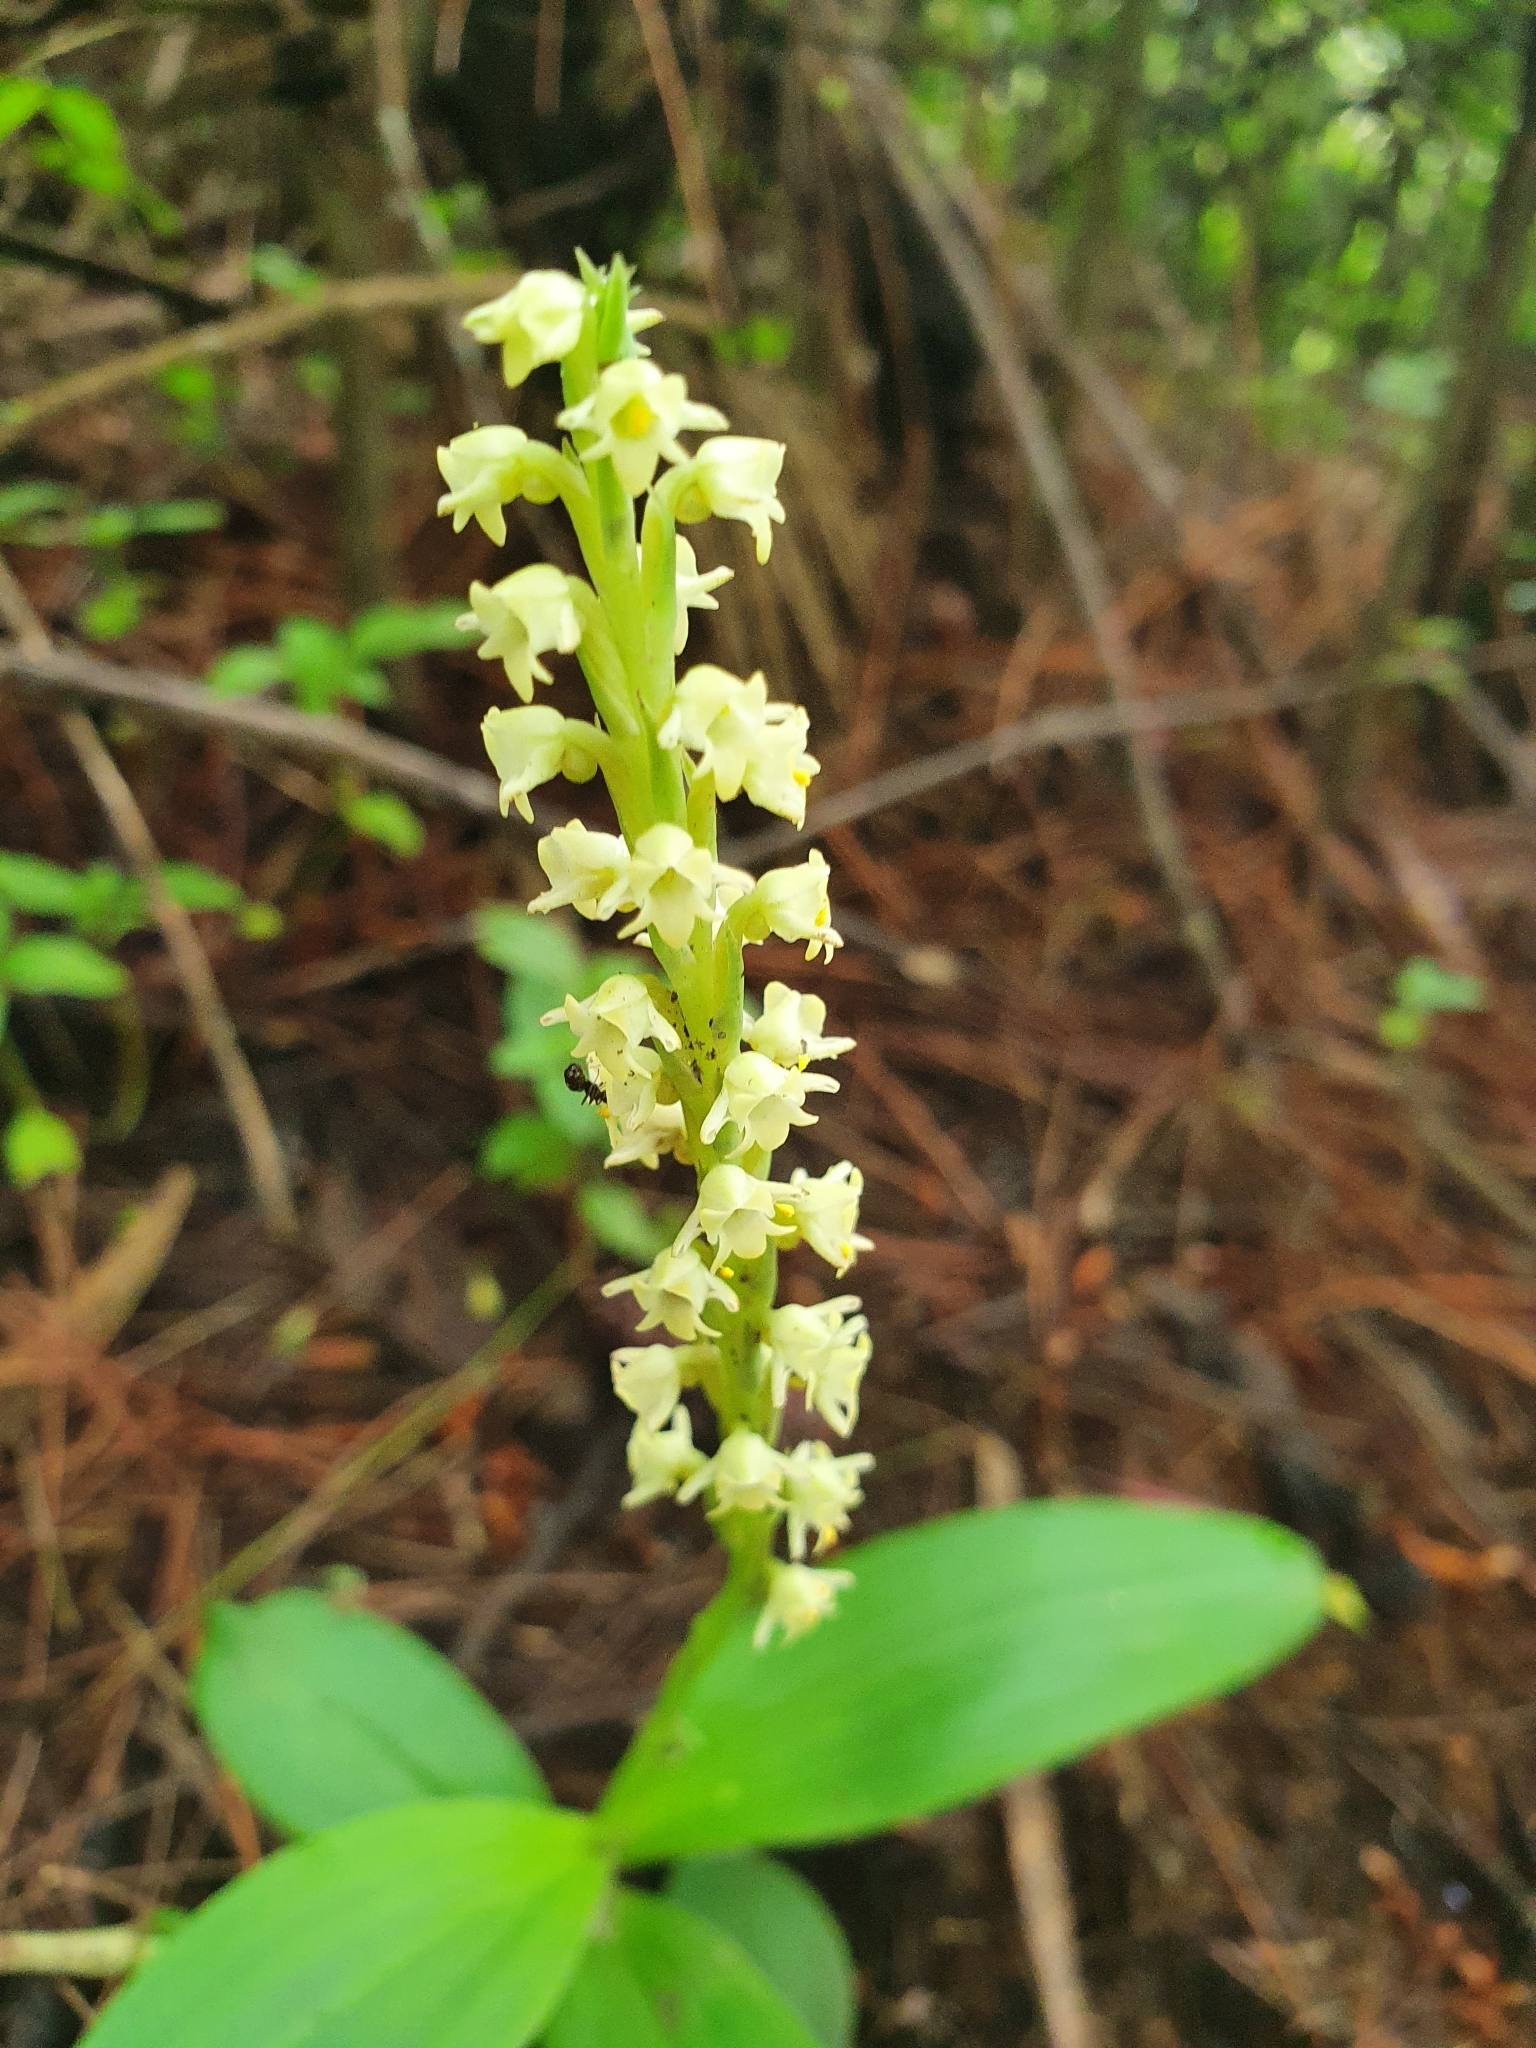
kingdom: Plantae
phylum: Tracheophyta
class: Liliopsida
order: Asparagales
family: Orchidaceae
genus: Peristylus
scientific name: Peristylus goodyeroides
